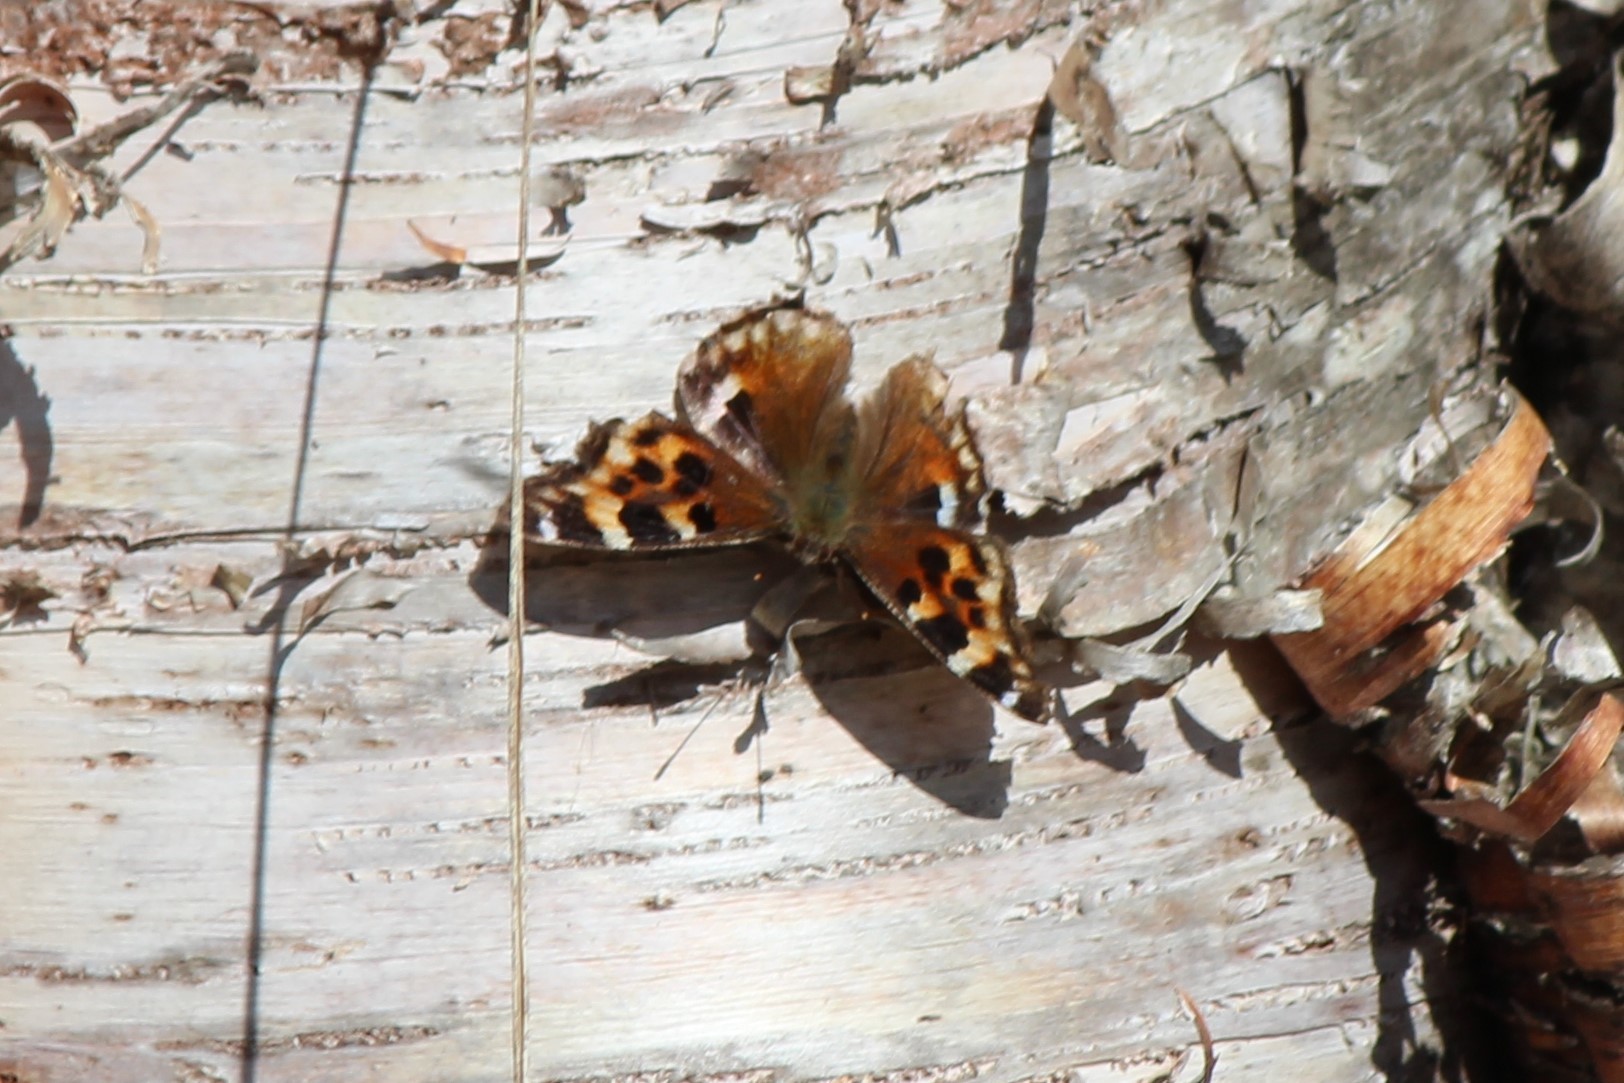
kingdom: Animalia
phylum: Arthropoda
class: Insecta
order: Lepidoptera
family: Nymphalidae
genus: Polygonia
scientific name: Polygonia vaualbum
